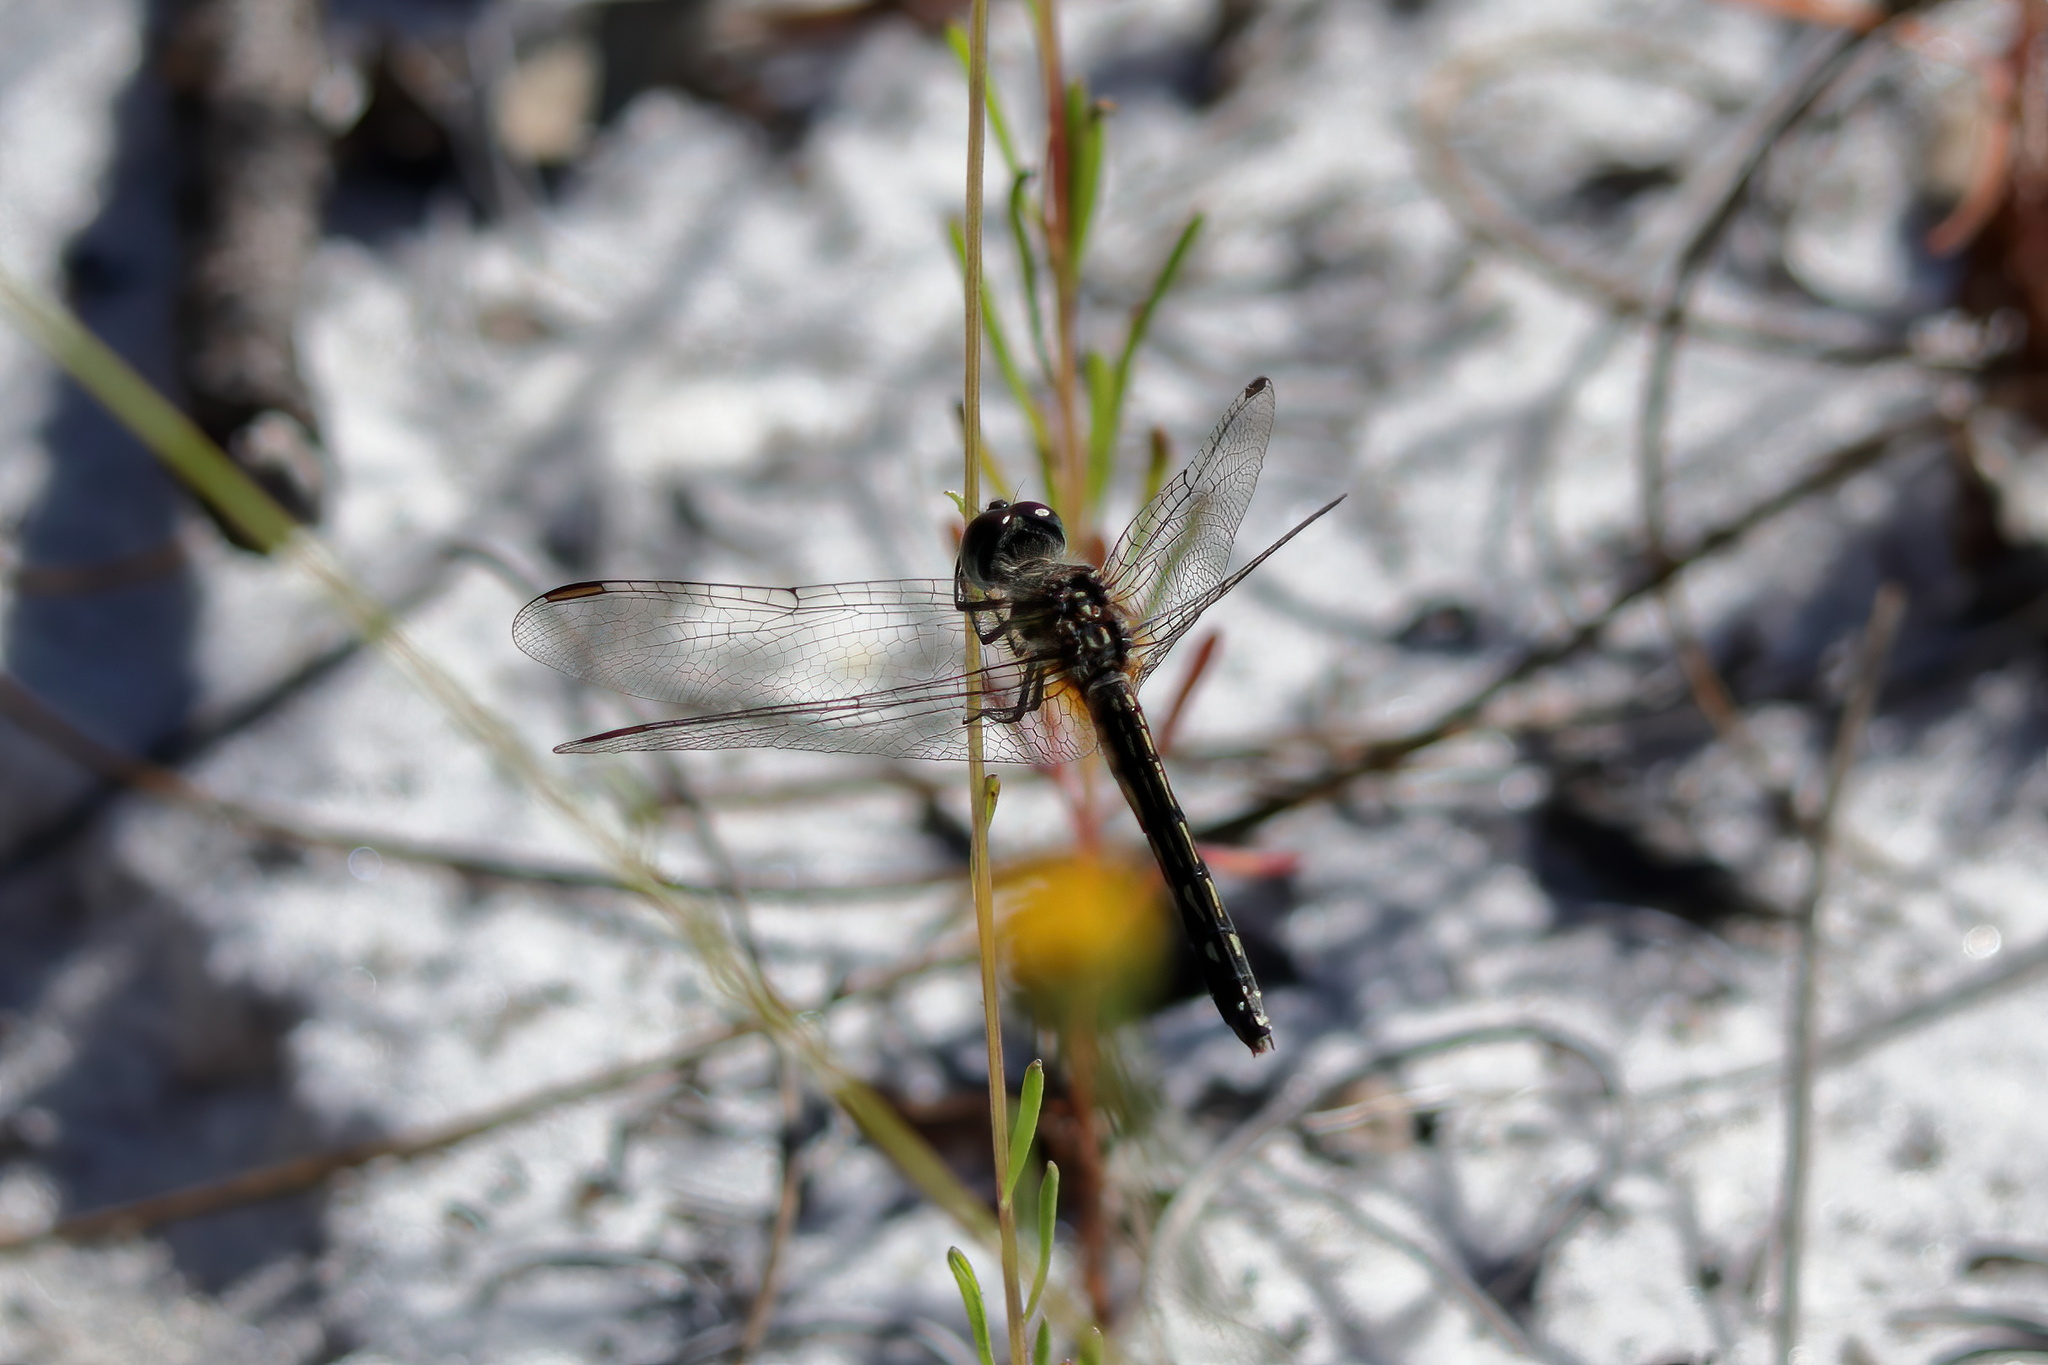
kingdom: Animalia
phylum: Arthropoda
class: Insecta
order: Odonata
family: Libellulidae
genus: Erythrodiplax
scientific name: Erythrodiplax minuscula
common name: Little blue dragonlet
